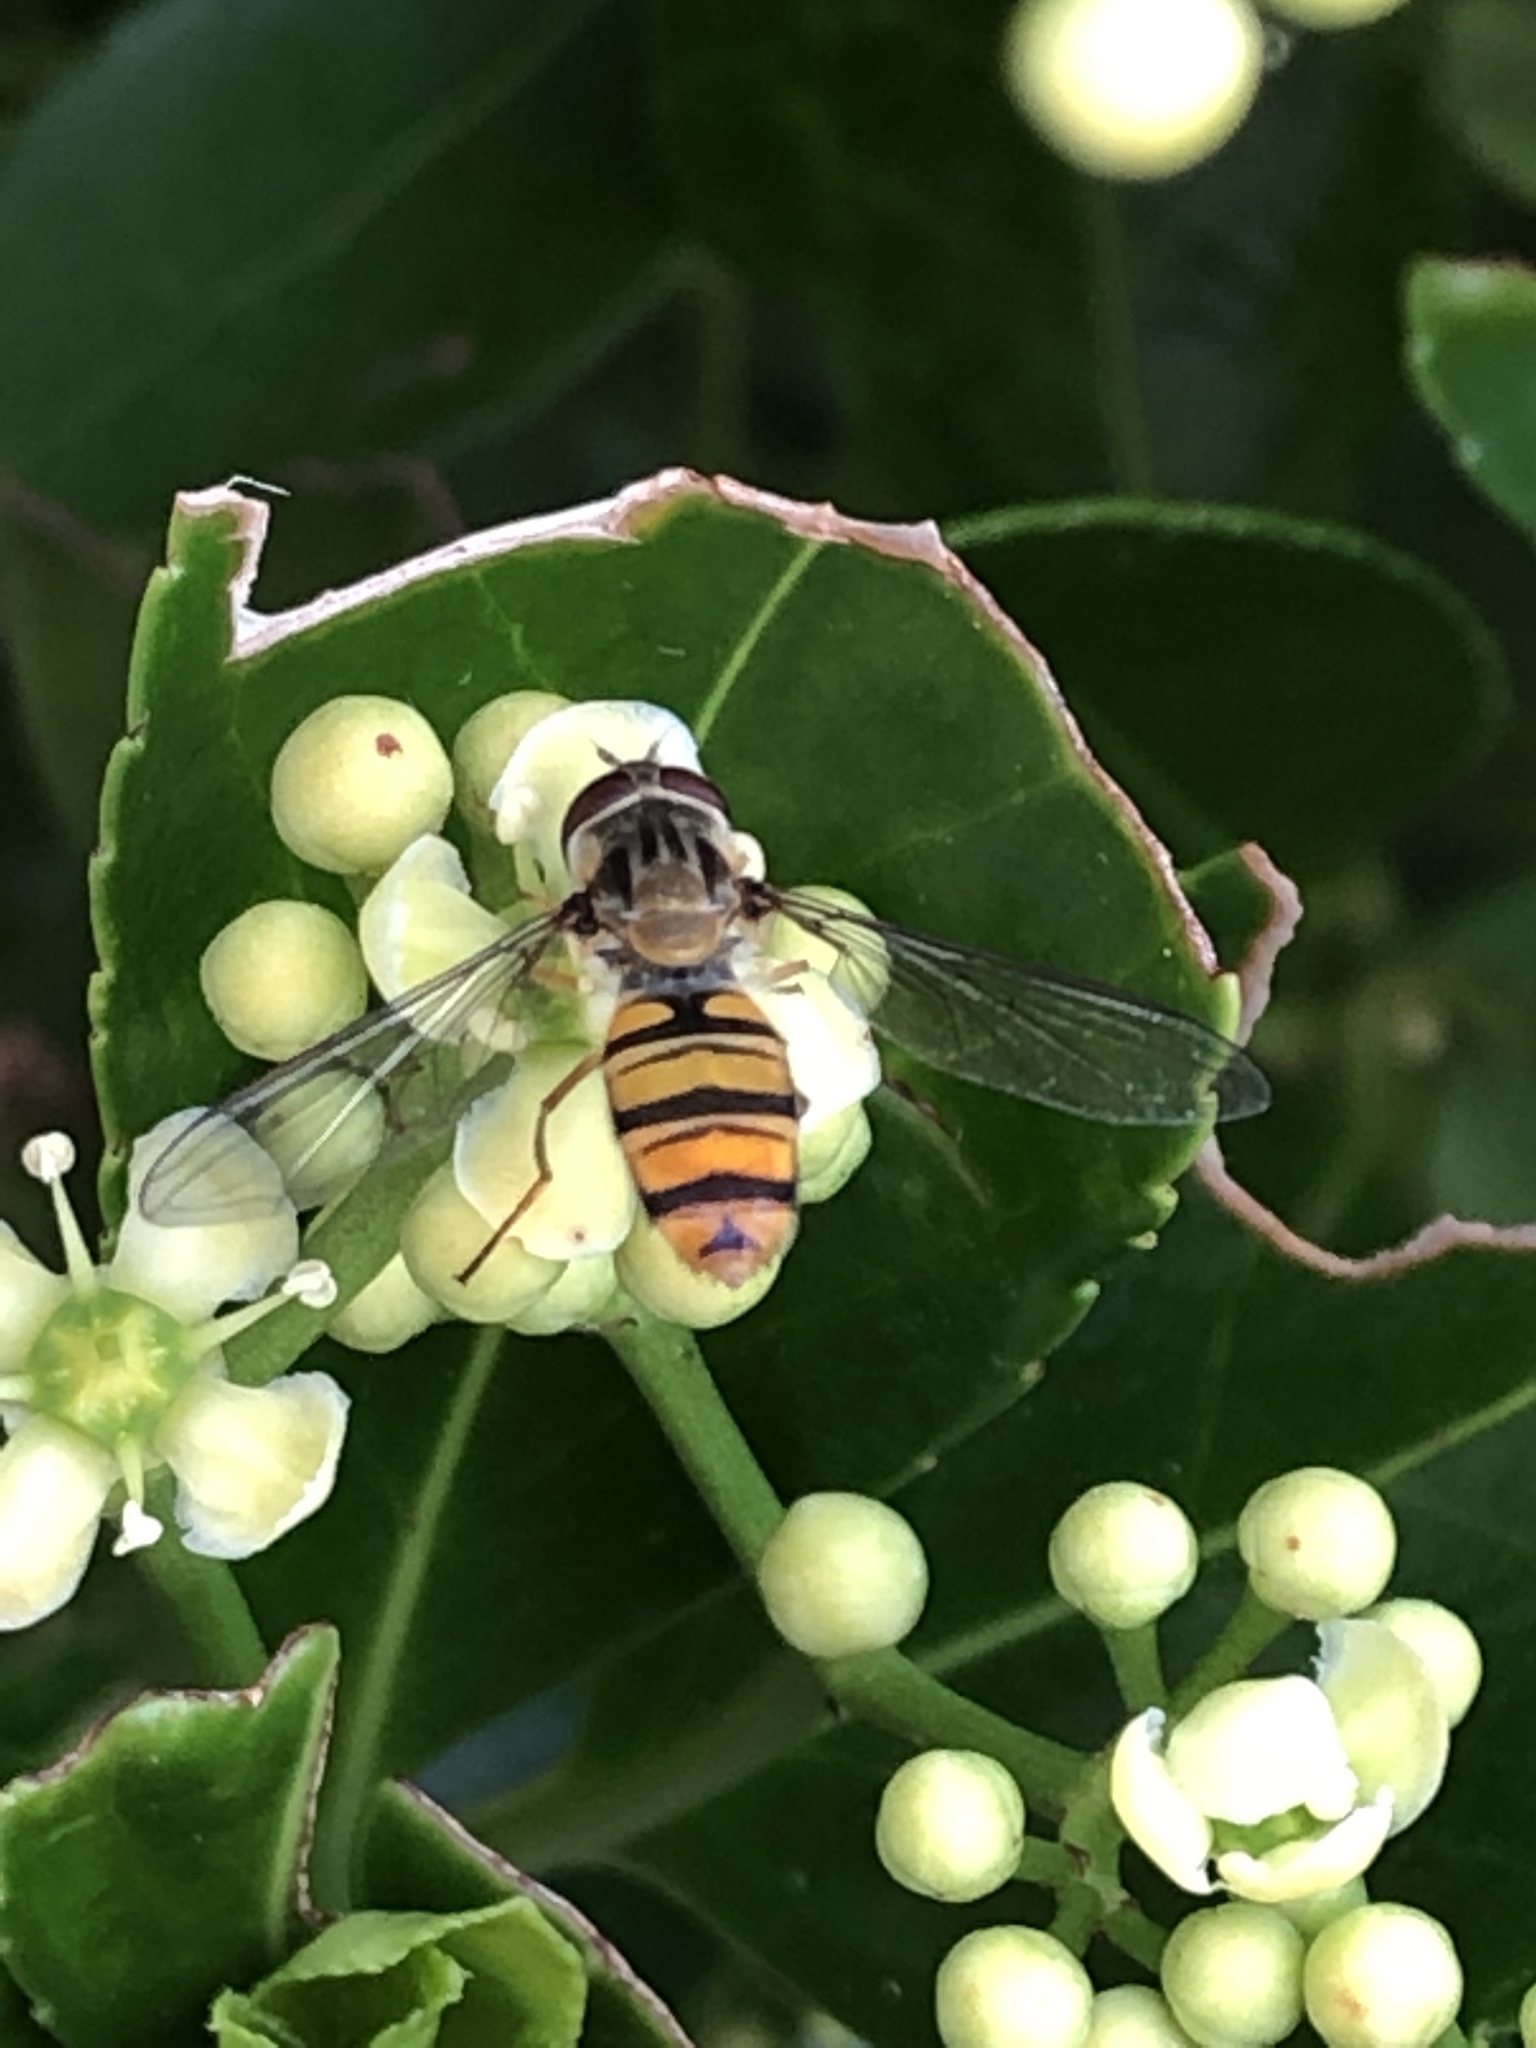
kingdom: Animalia
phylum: Arthropoda
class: Insecta
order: Diptera
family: Syrphidae
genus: Episyrphus
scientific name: Episyrphus balteatus
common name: Marmalade hoverfly
